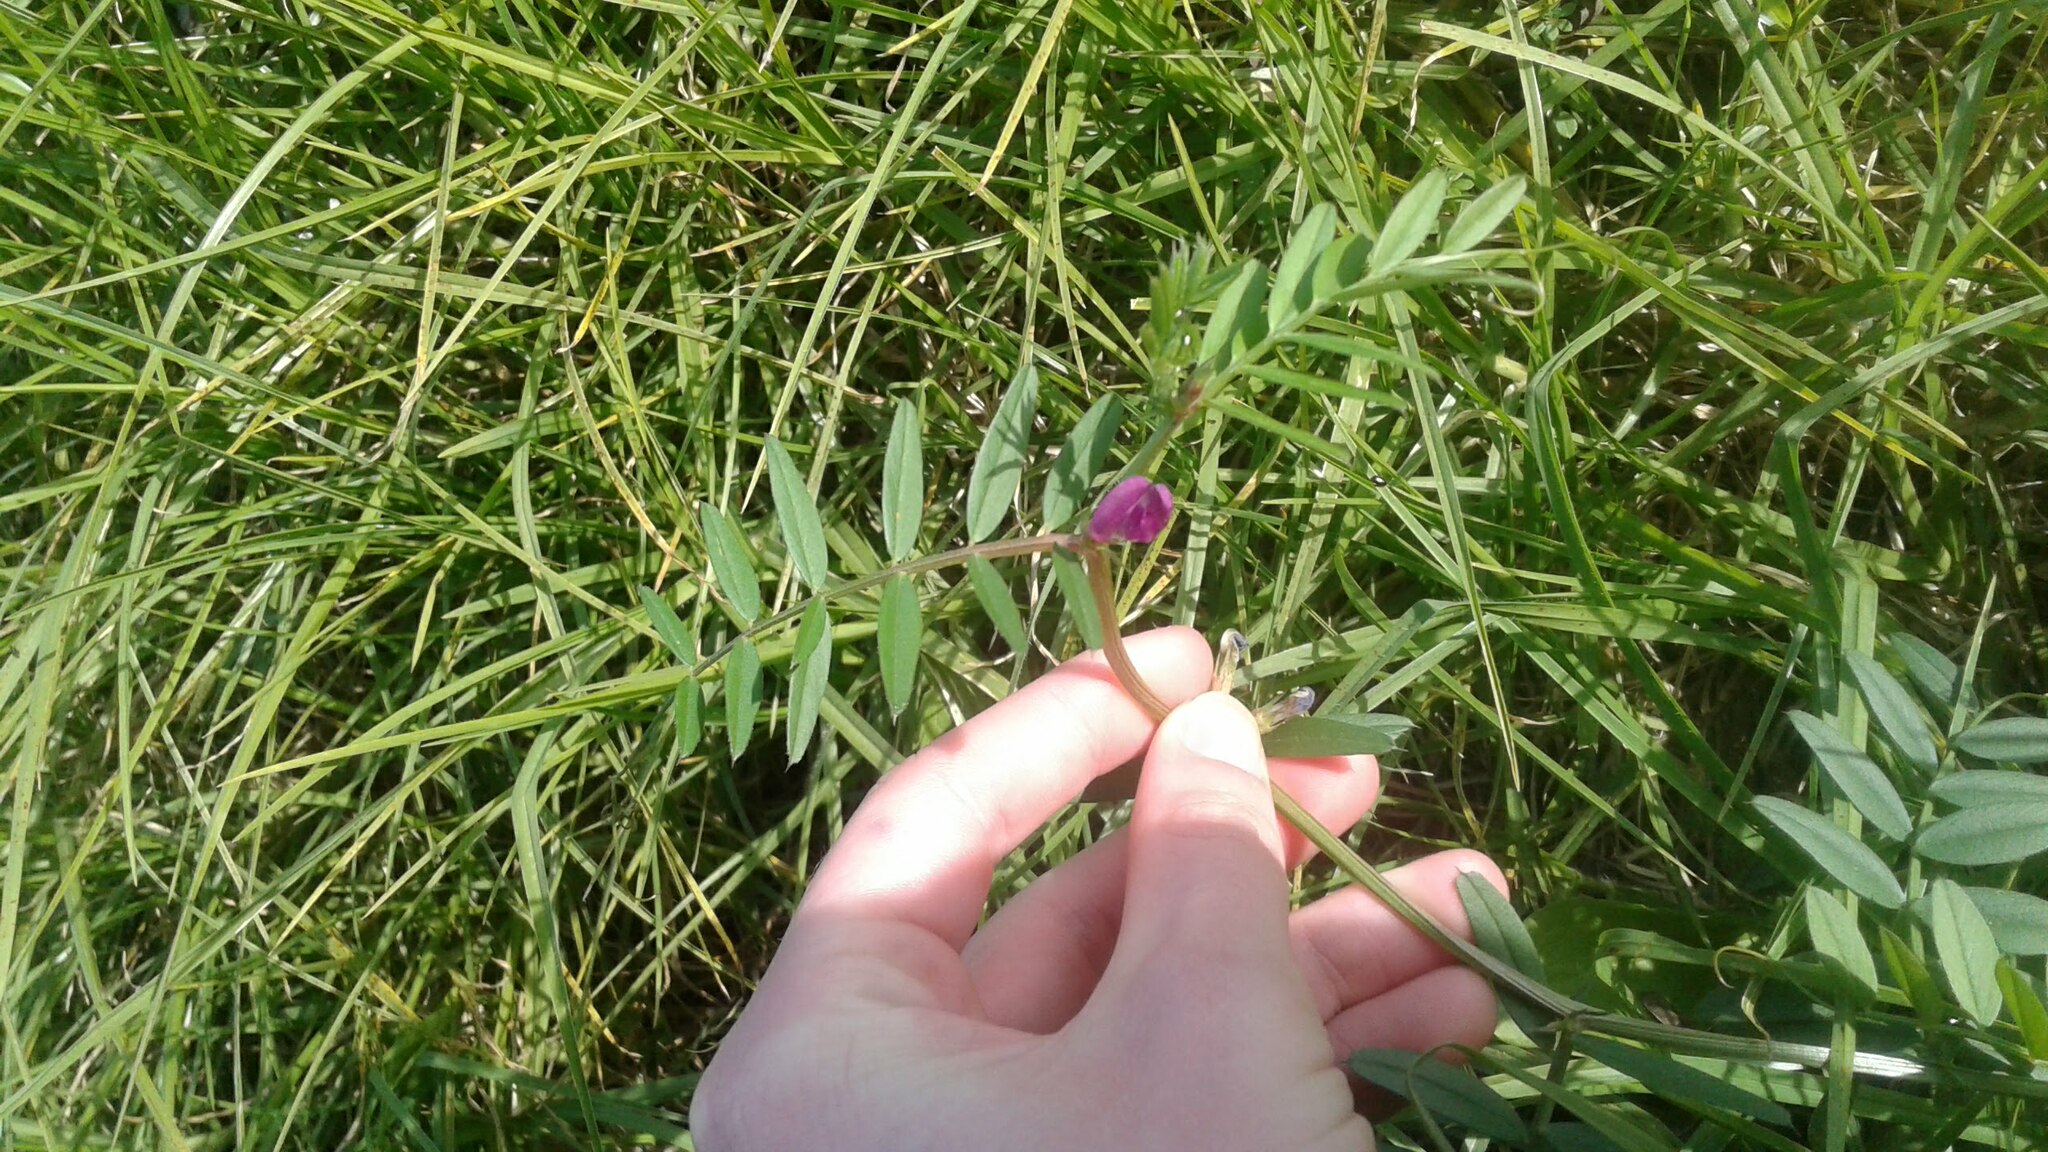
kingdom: Plantae
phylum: Tracheophyta
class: Magnoliopsida
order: Fabales
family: Fabaceae
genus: Vicia
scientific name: Vicia sativa
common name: Garden vetch
